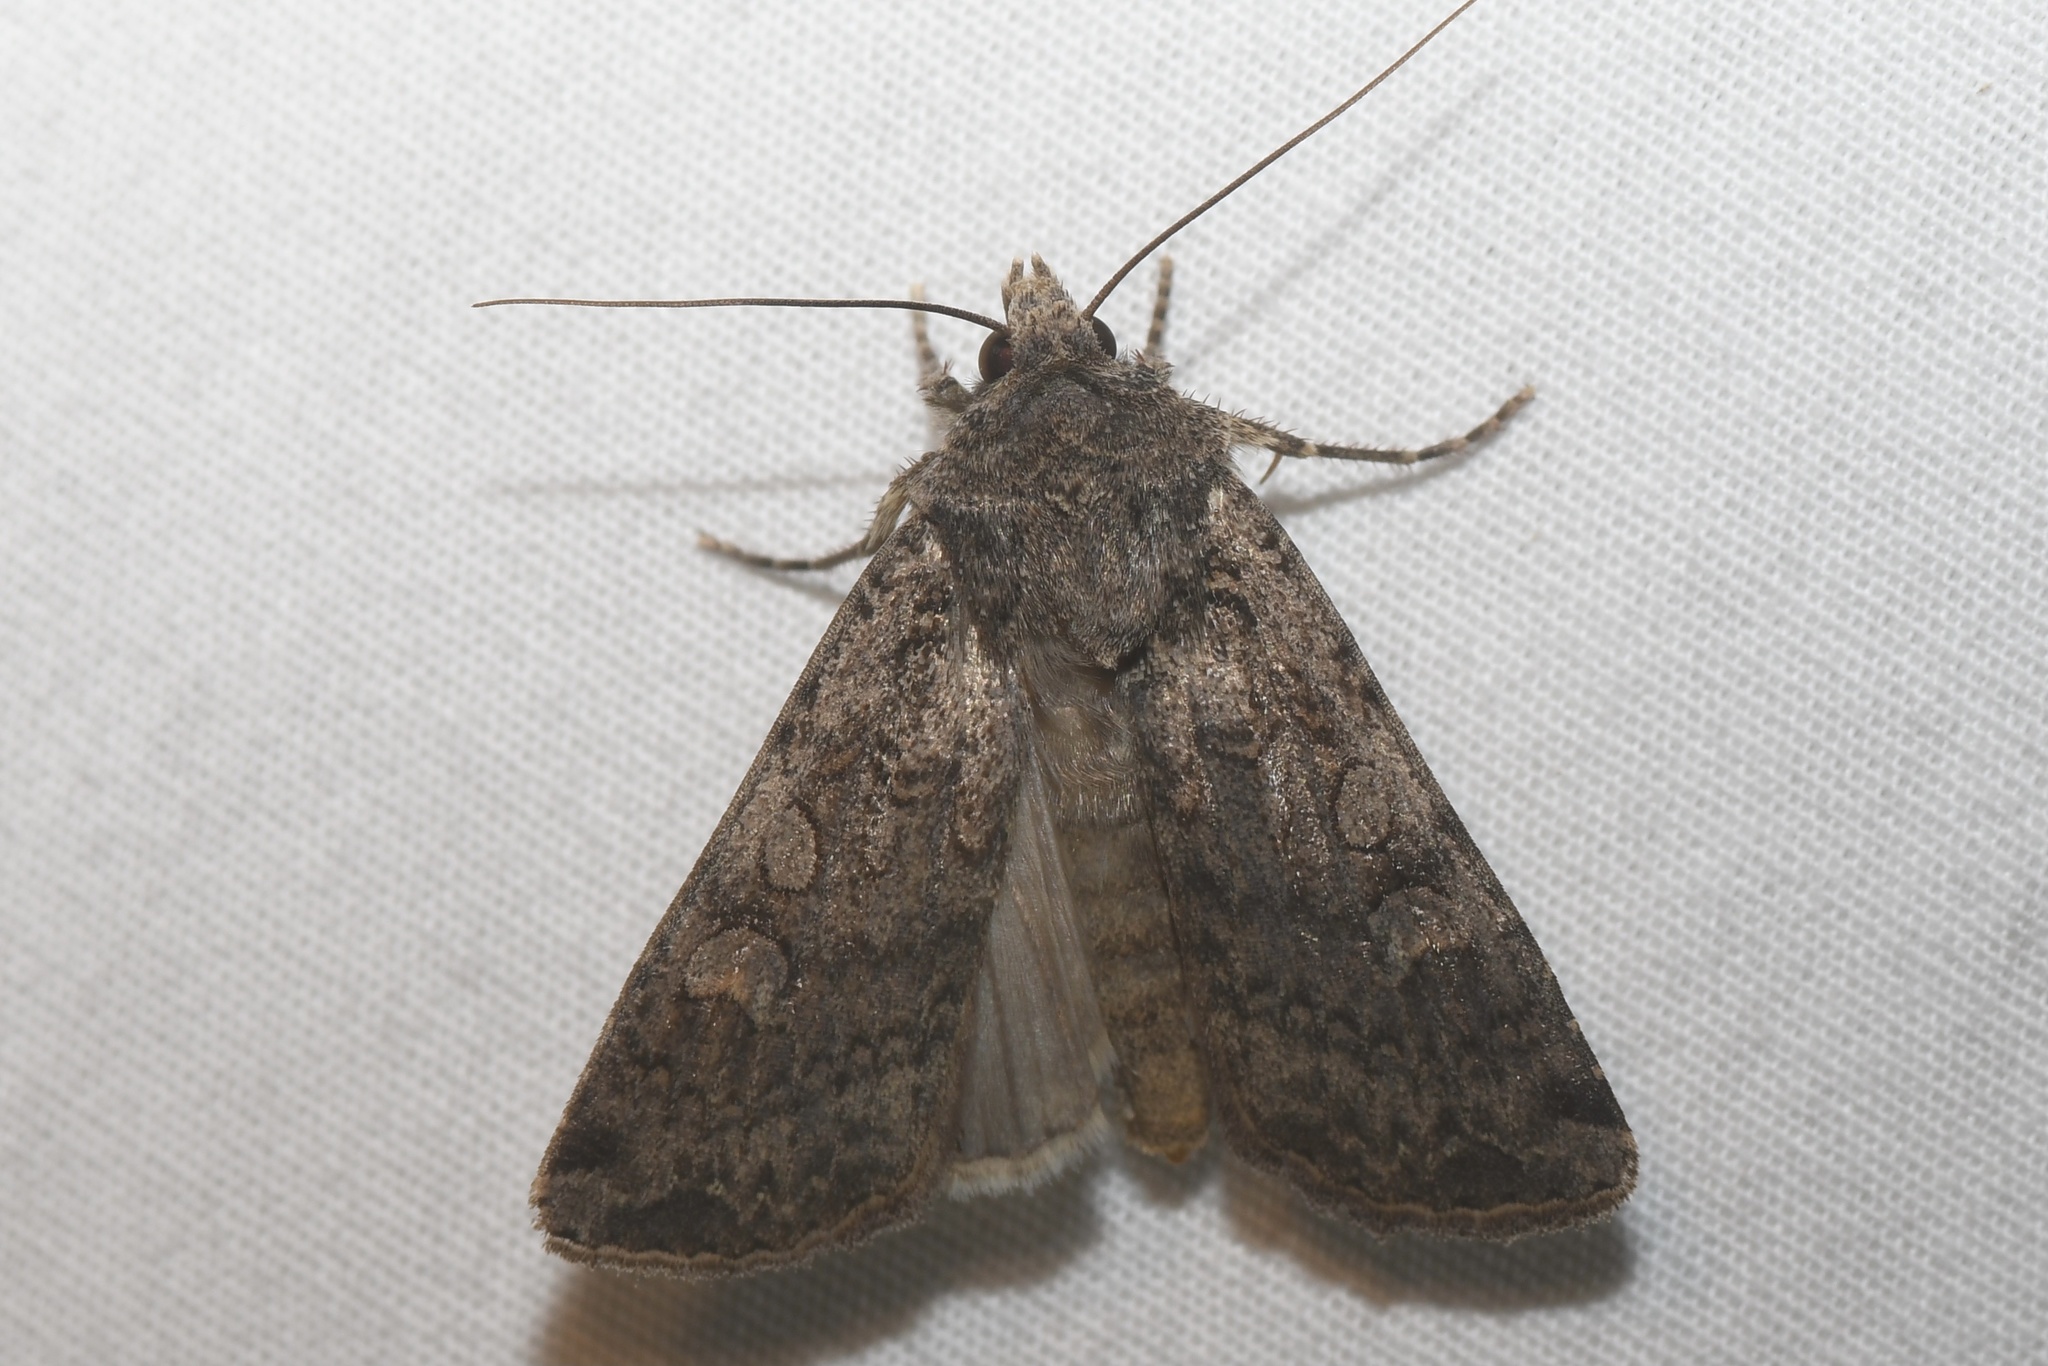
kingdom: Animalia
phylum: Arthropoda
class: Insecta
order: Lepidoptera
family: Noctuidae
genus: Euxoa
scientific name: Euxoa messoria
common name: Darksided cutworm
